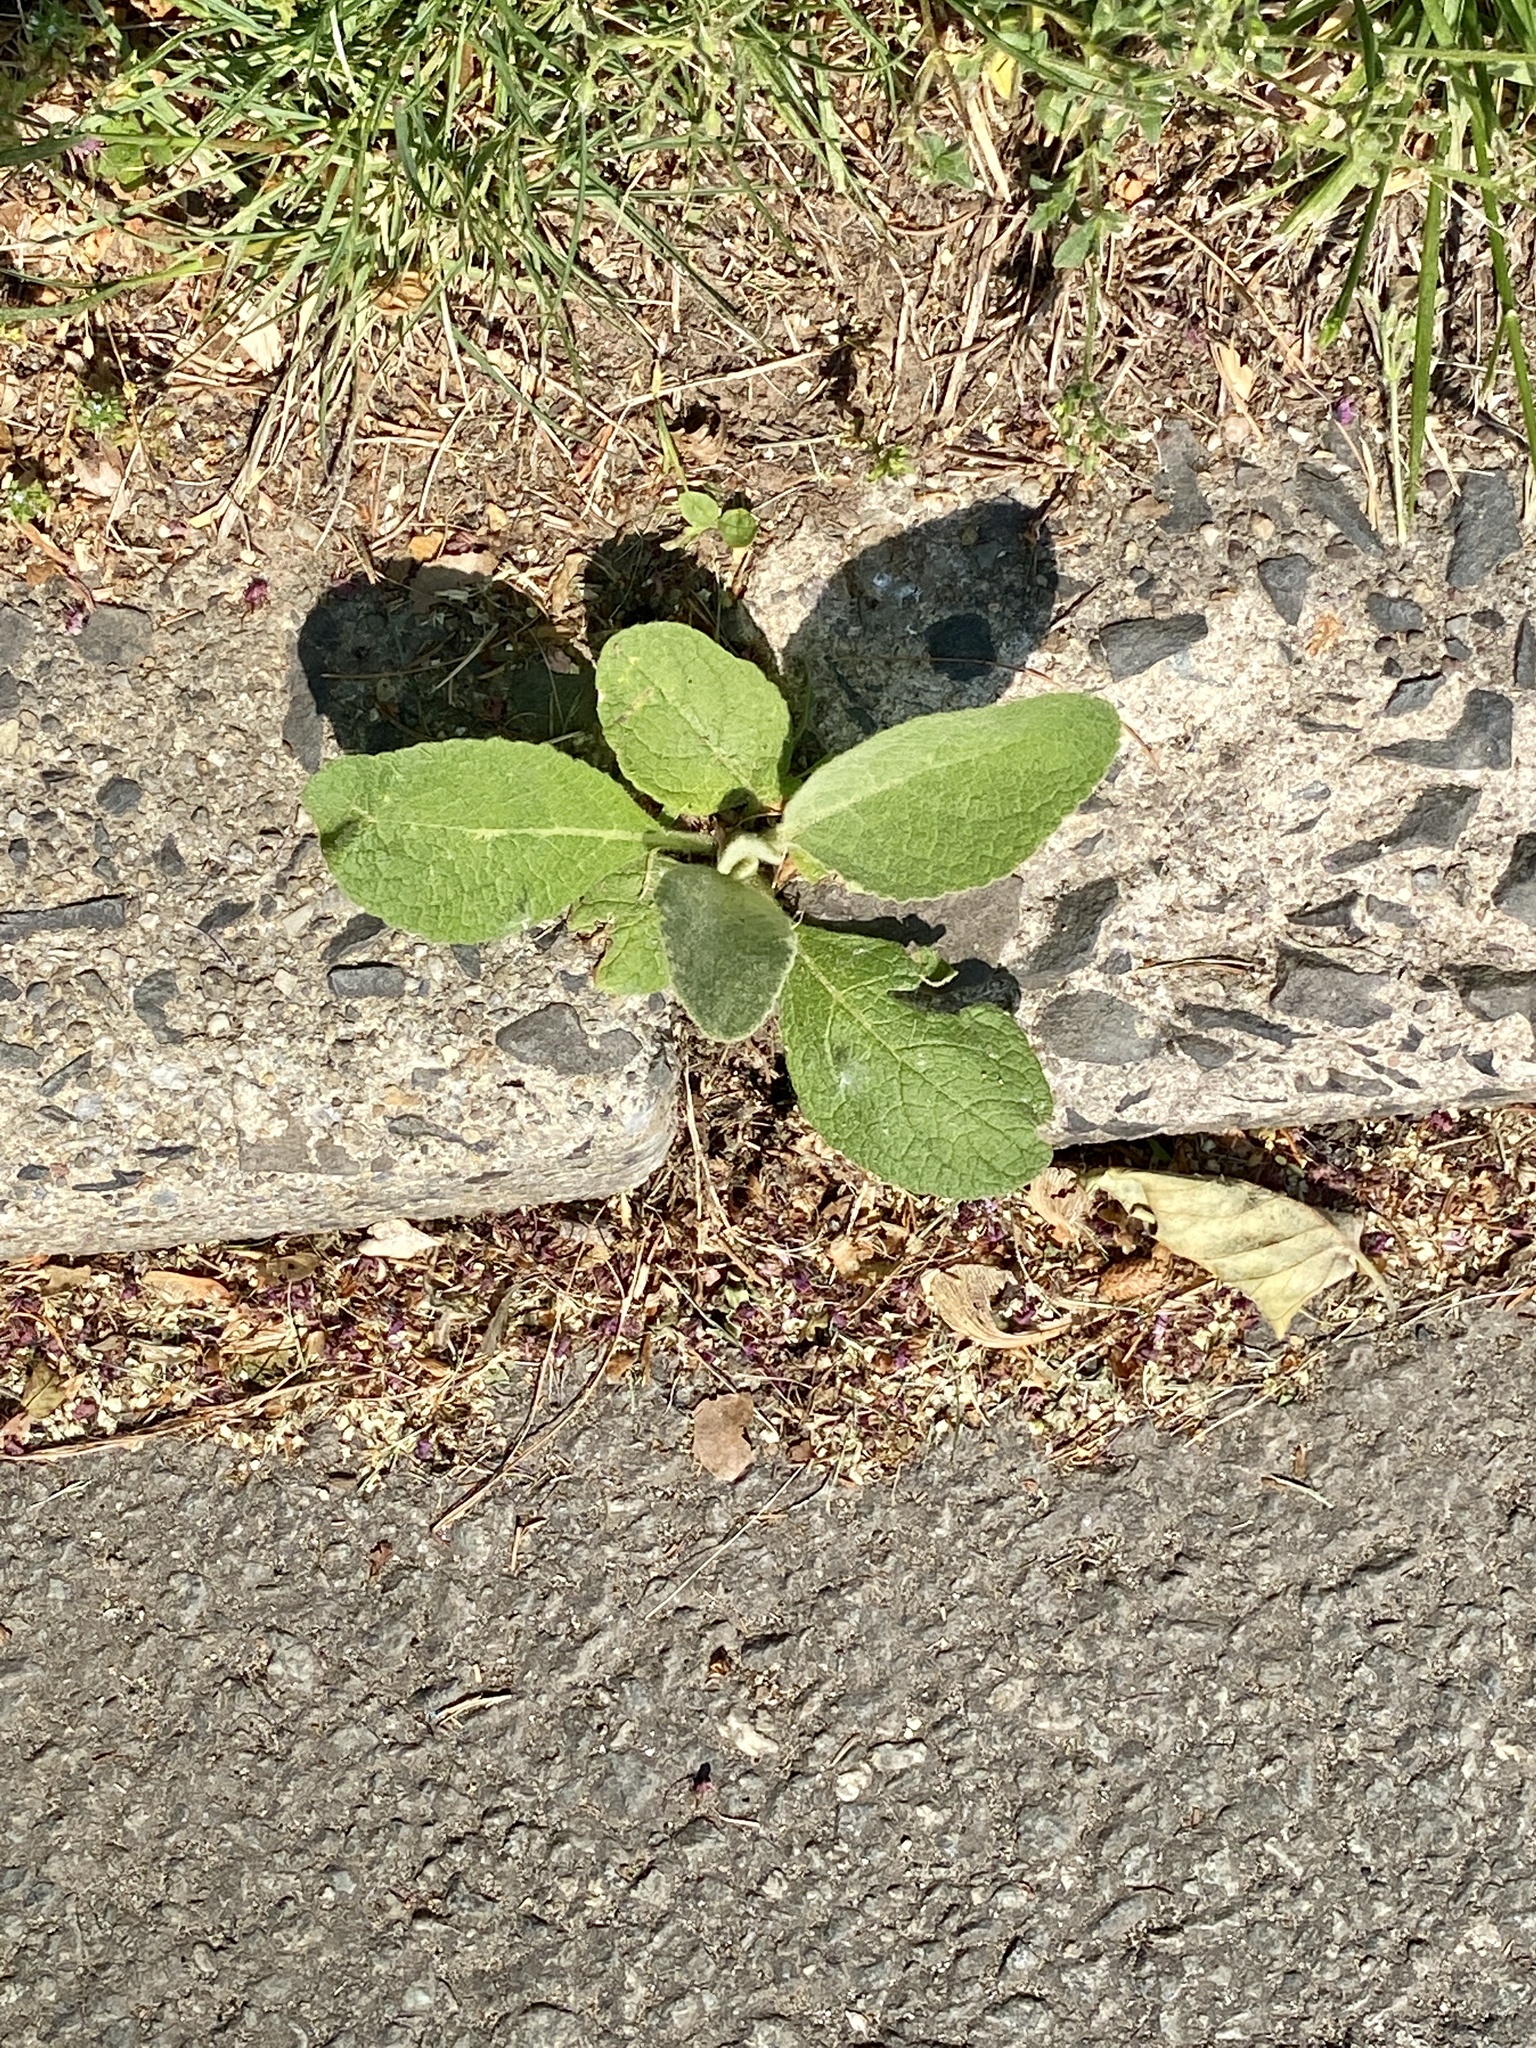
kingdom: Plantae
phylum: Tracheophyta
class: Magnoliopsida
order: Lamiales
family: Scrophulariaceae
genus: Verbascum
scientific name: Verbascum thapsus
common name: Common mullein
